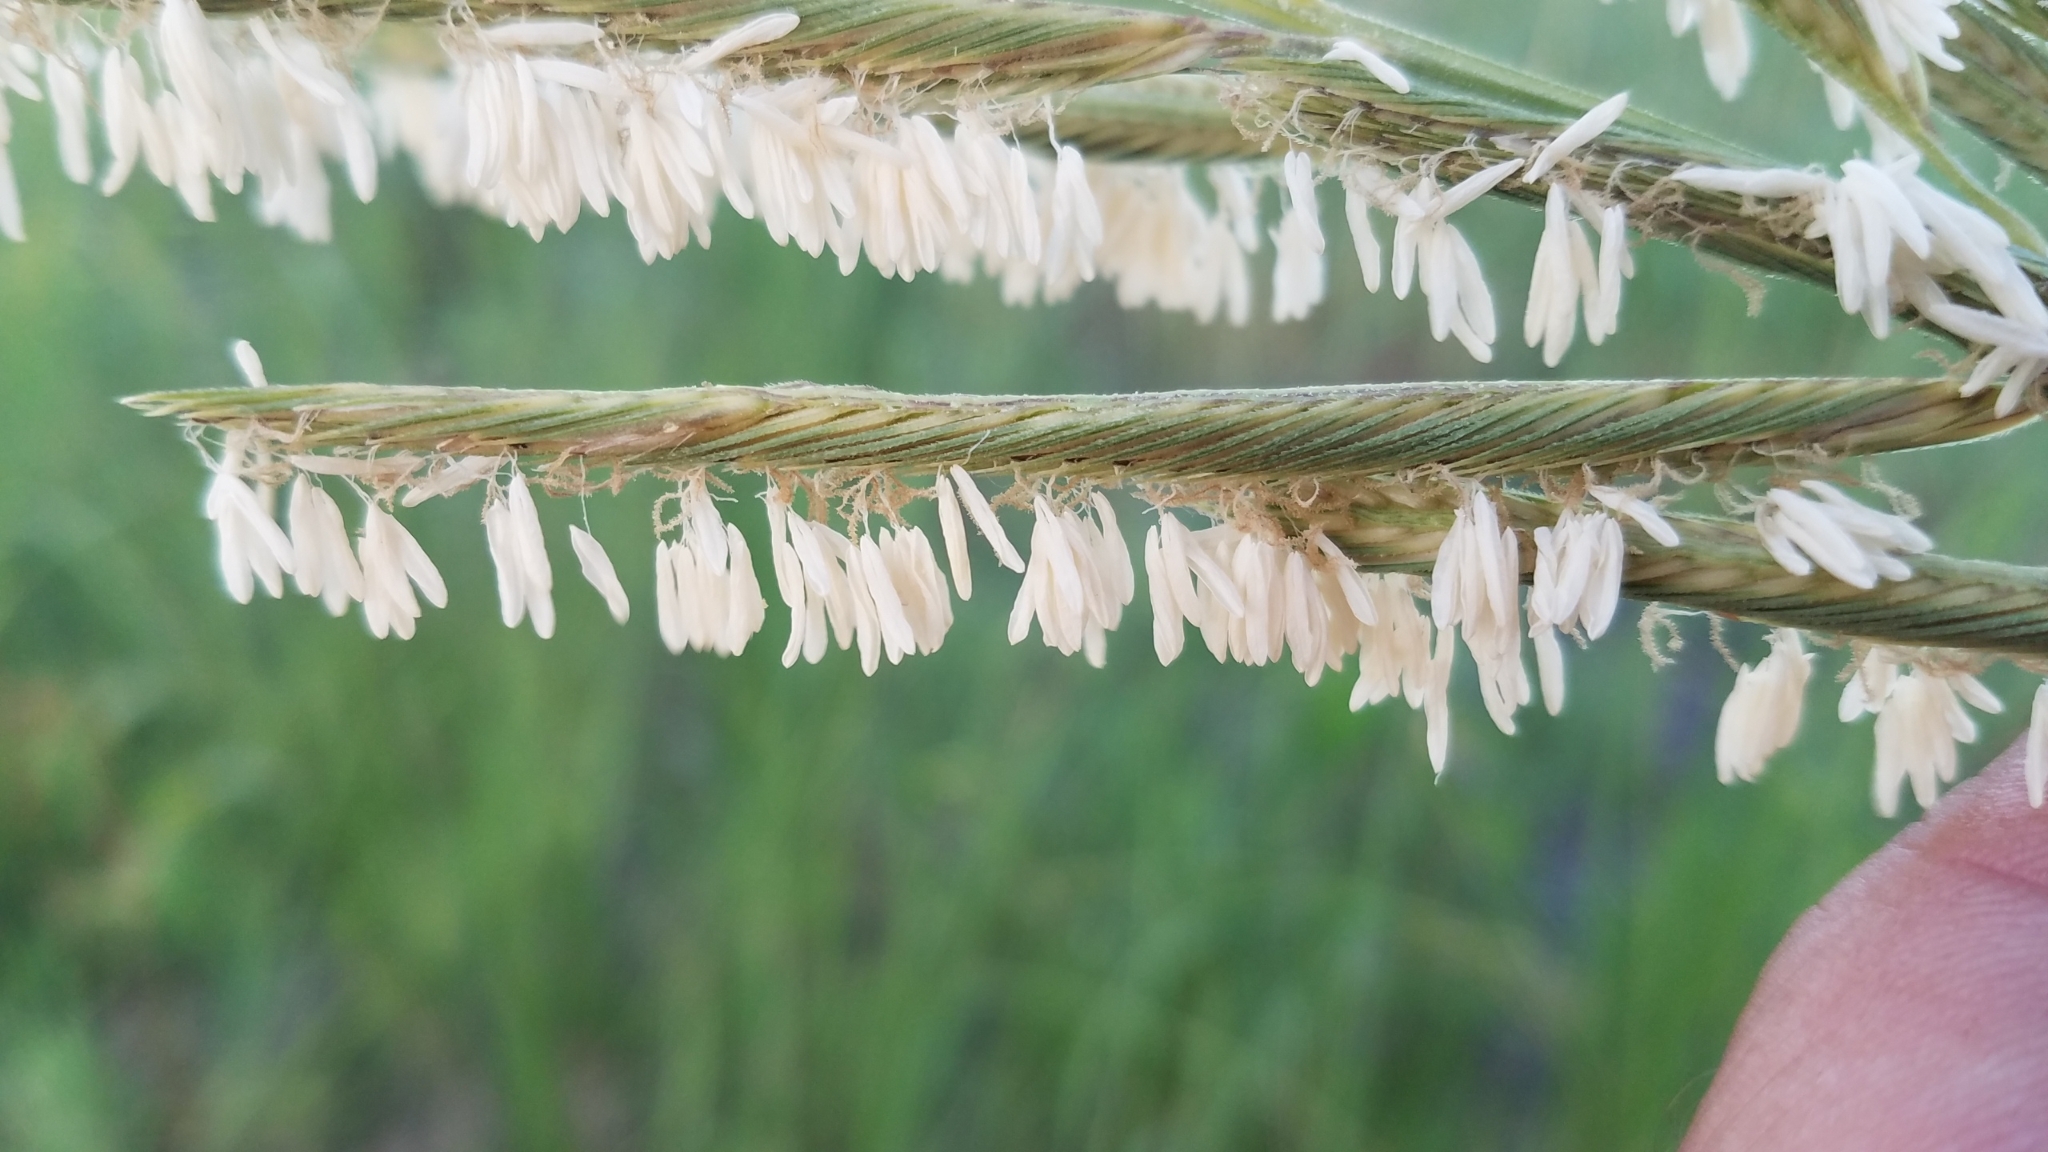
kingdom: Plantae
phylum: Tracheophyta
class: Liliopsida
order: Poales
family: Poaceae
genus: Sporobolus
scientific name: Sporobolus michauxianus
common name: Freshwater cordgrass
